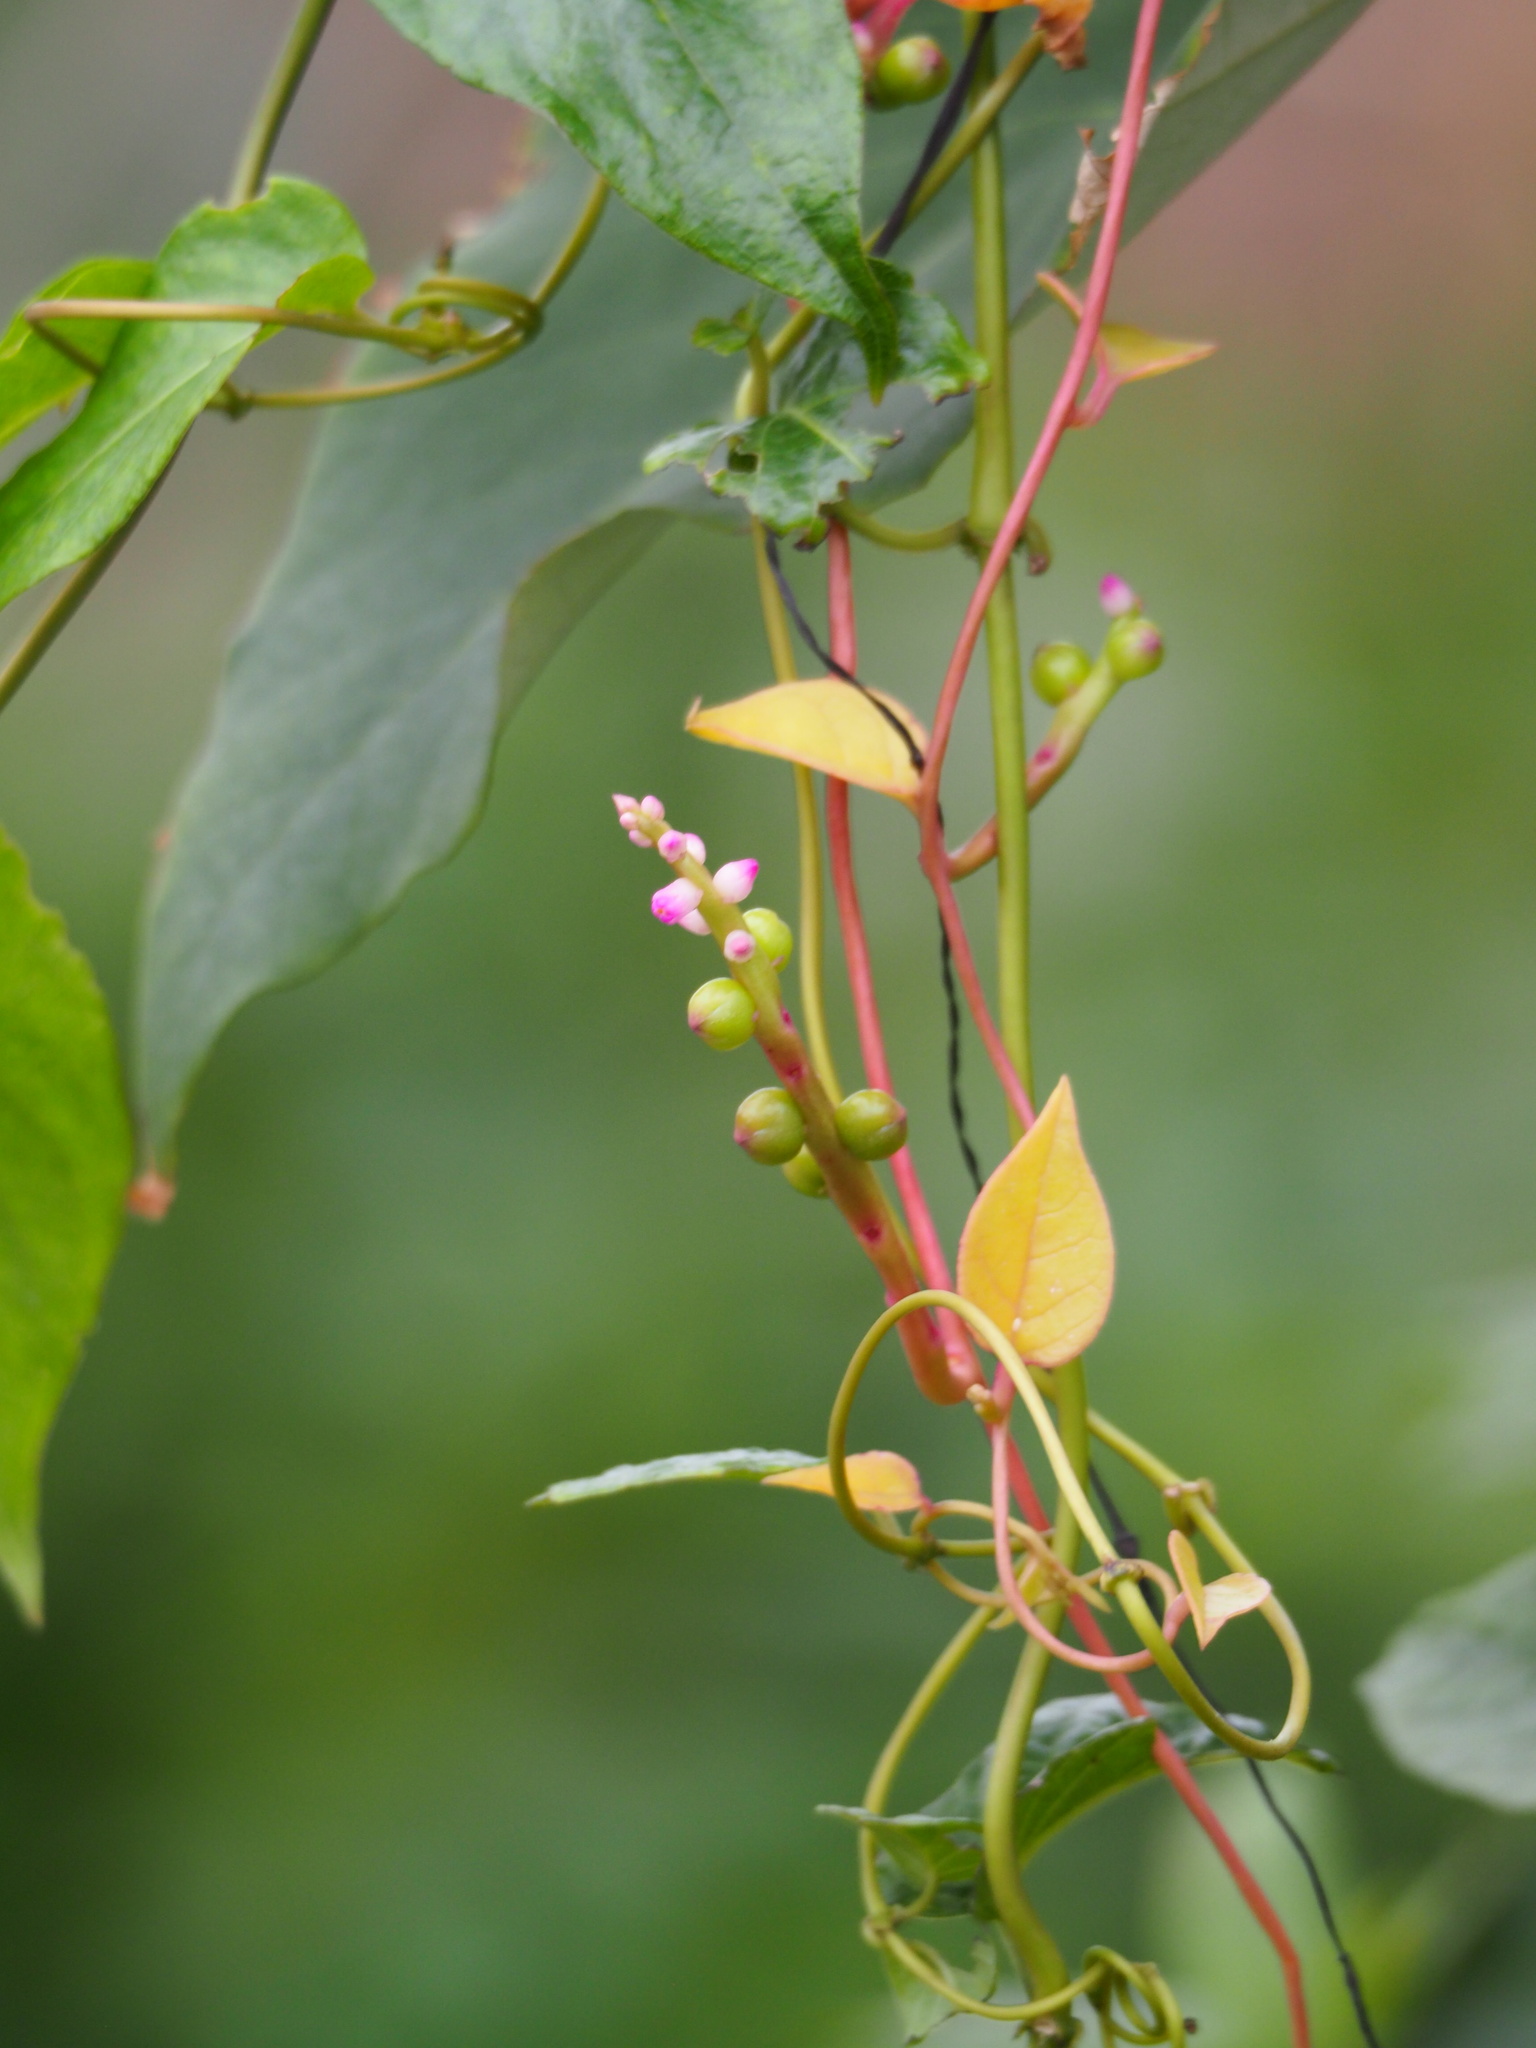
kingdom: Plantae
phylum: Tracheophyta
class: Magnoliopsida
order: Caryophyllales
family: Basellaceae
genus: Basella
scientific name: Basella alba
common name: Indian spinach
